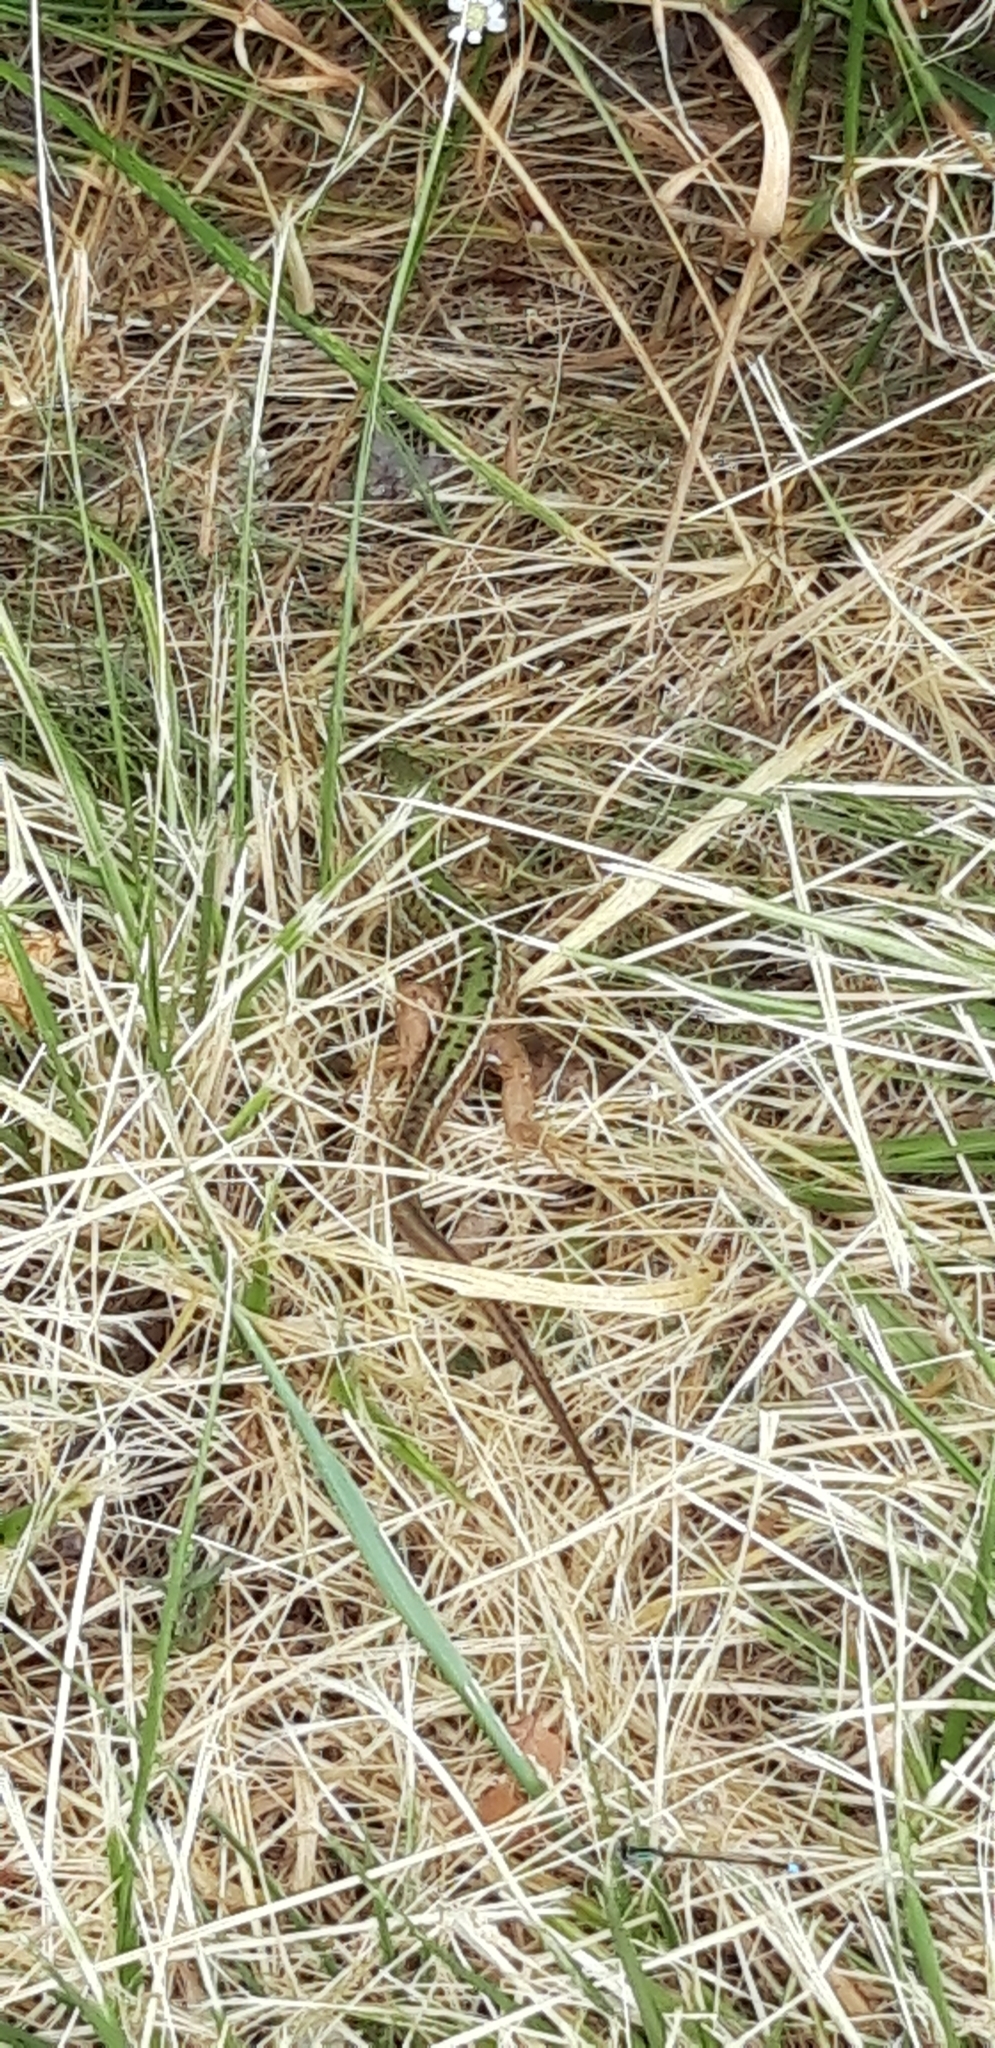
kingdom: Animalia
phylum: Chordata
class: Squamata
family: Lacertidae
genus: Lacerta
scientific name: Lacerta bilineata
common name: Western green lizard
